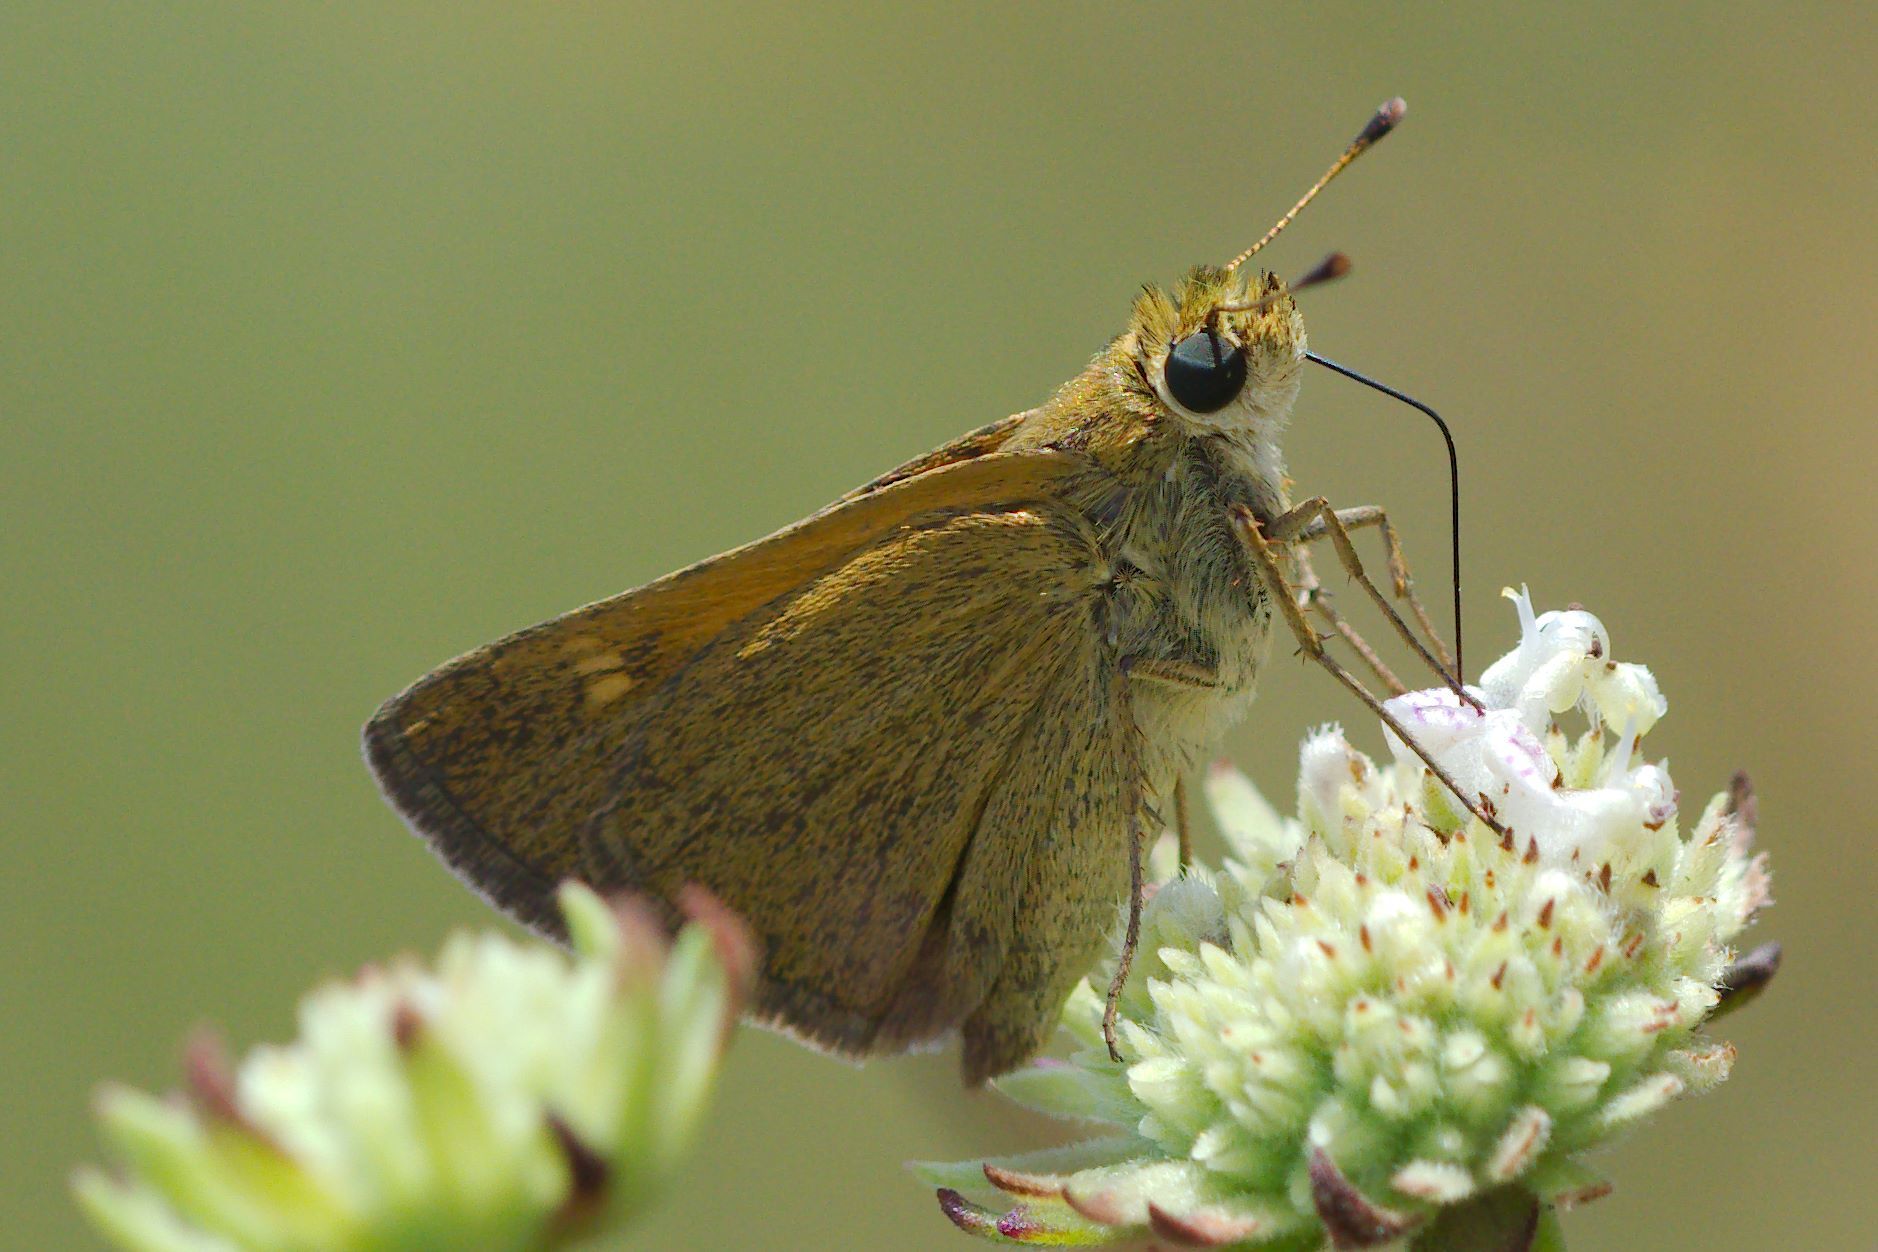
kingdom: Animalia
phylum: Arthropoda
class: Insecta
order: Lepidoptera
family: Hesperiidae
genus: Polites
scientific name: Polites themistocles
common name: Tawny-edged skipper
